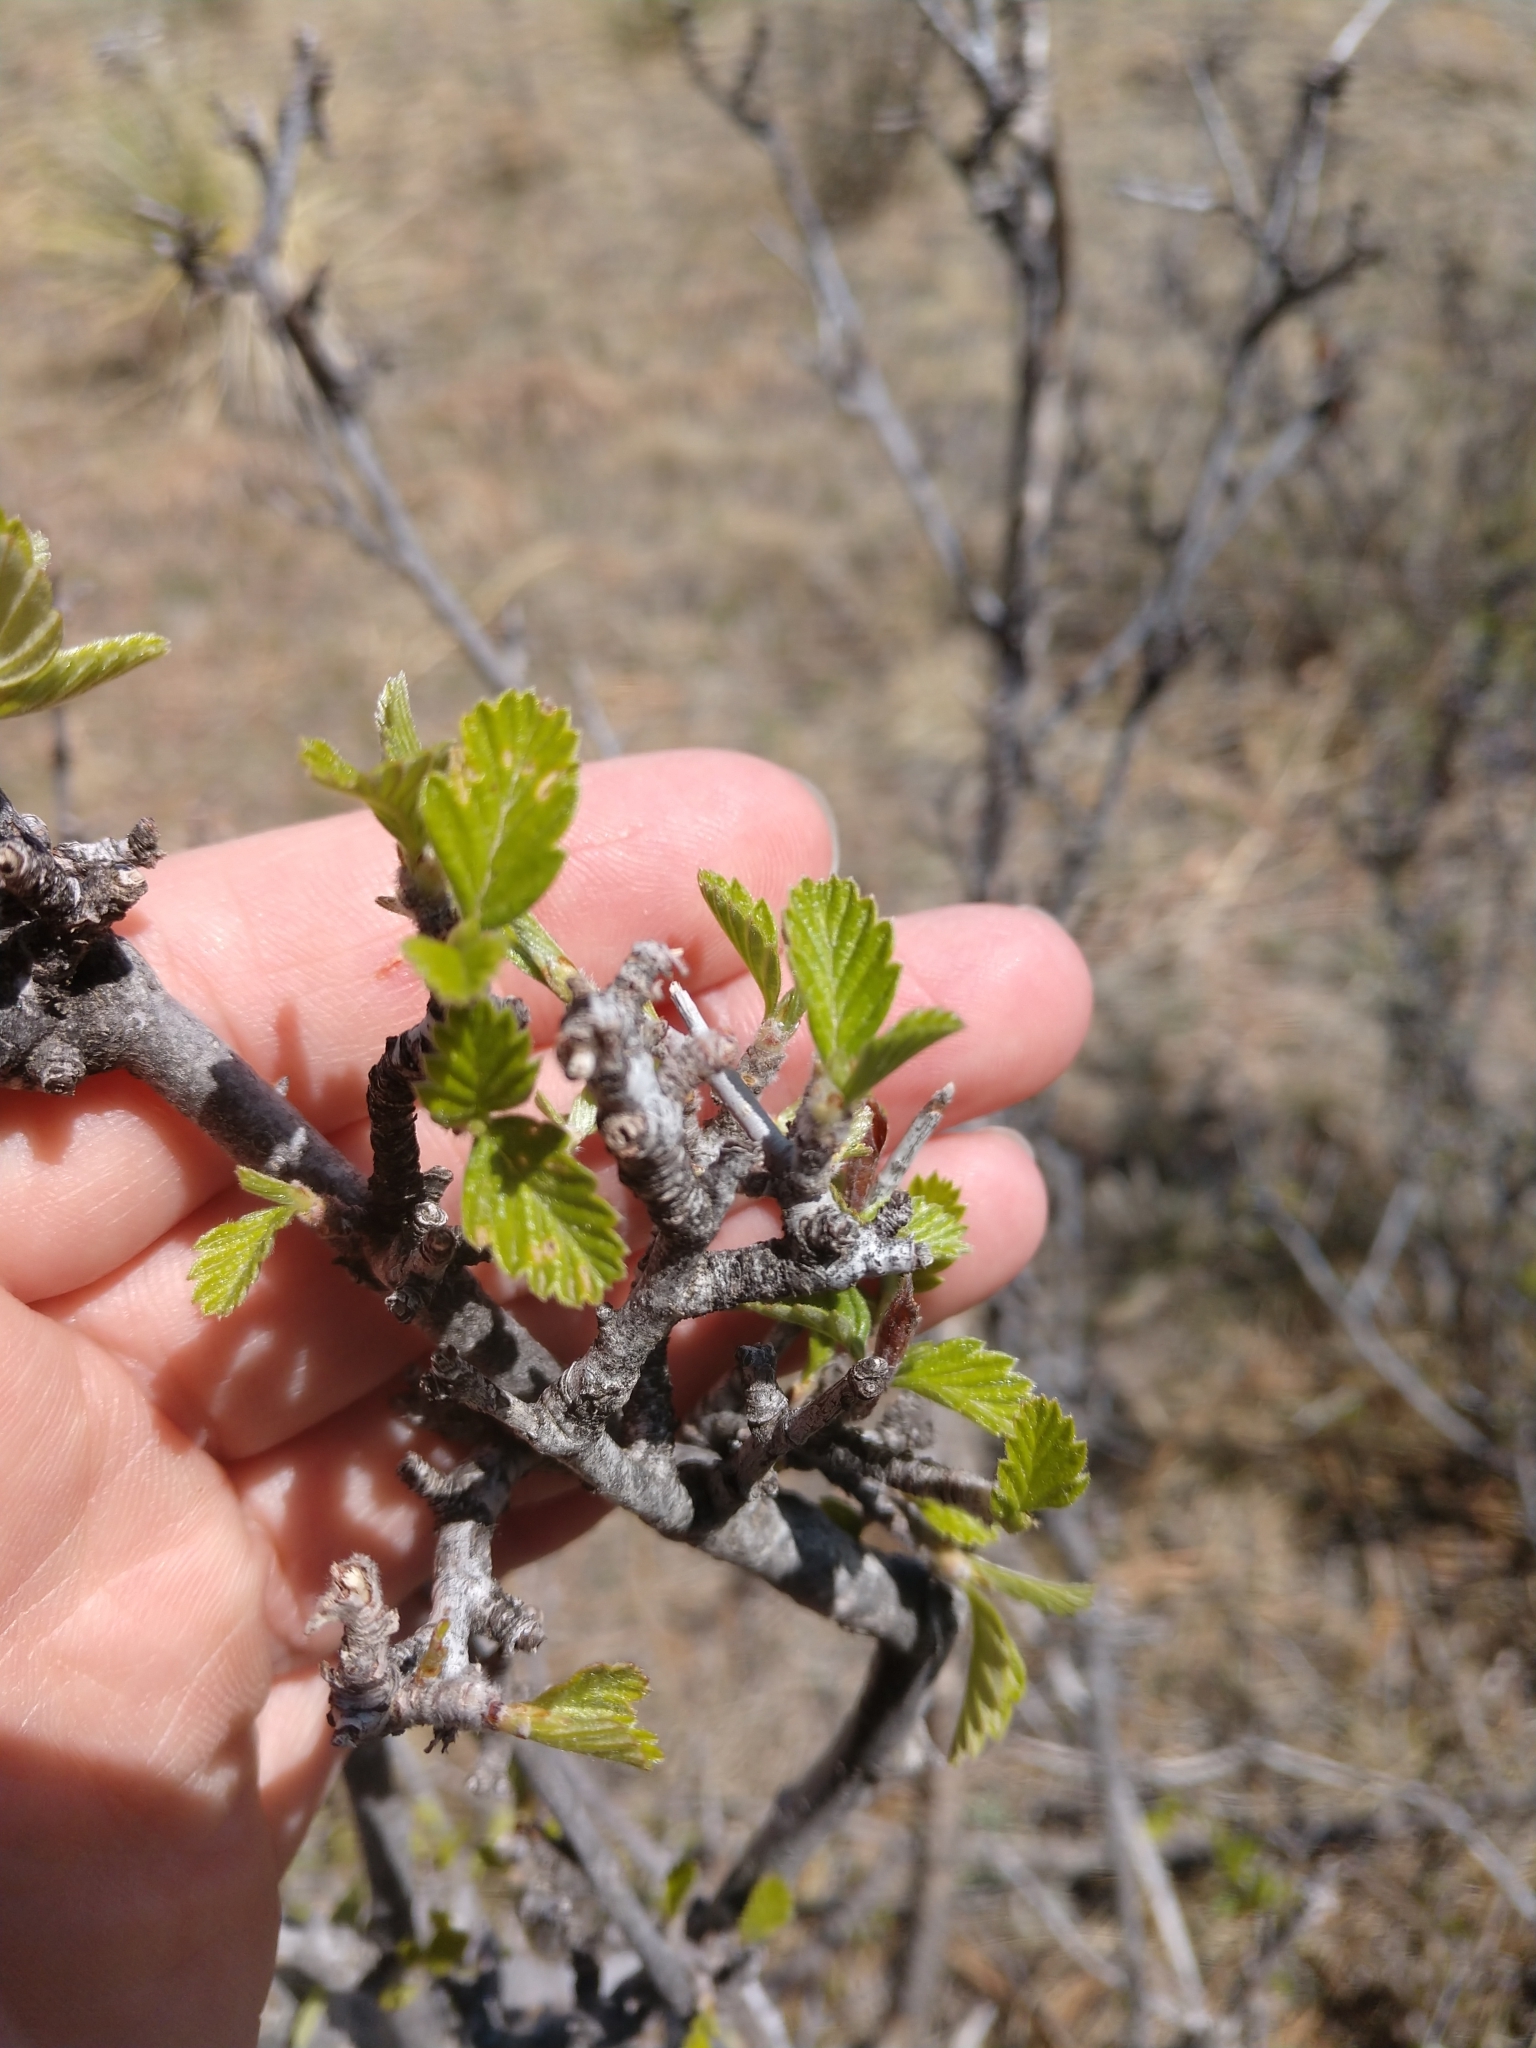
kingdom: Plantae
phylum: Tracheophyta
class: Magnoliopsida
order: Rosales
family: Rosaceae
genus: Cercocarpus
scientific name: Cercocarpus montanus
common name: Alder-leaf cercocarpus
